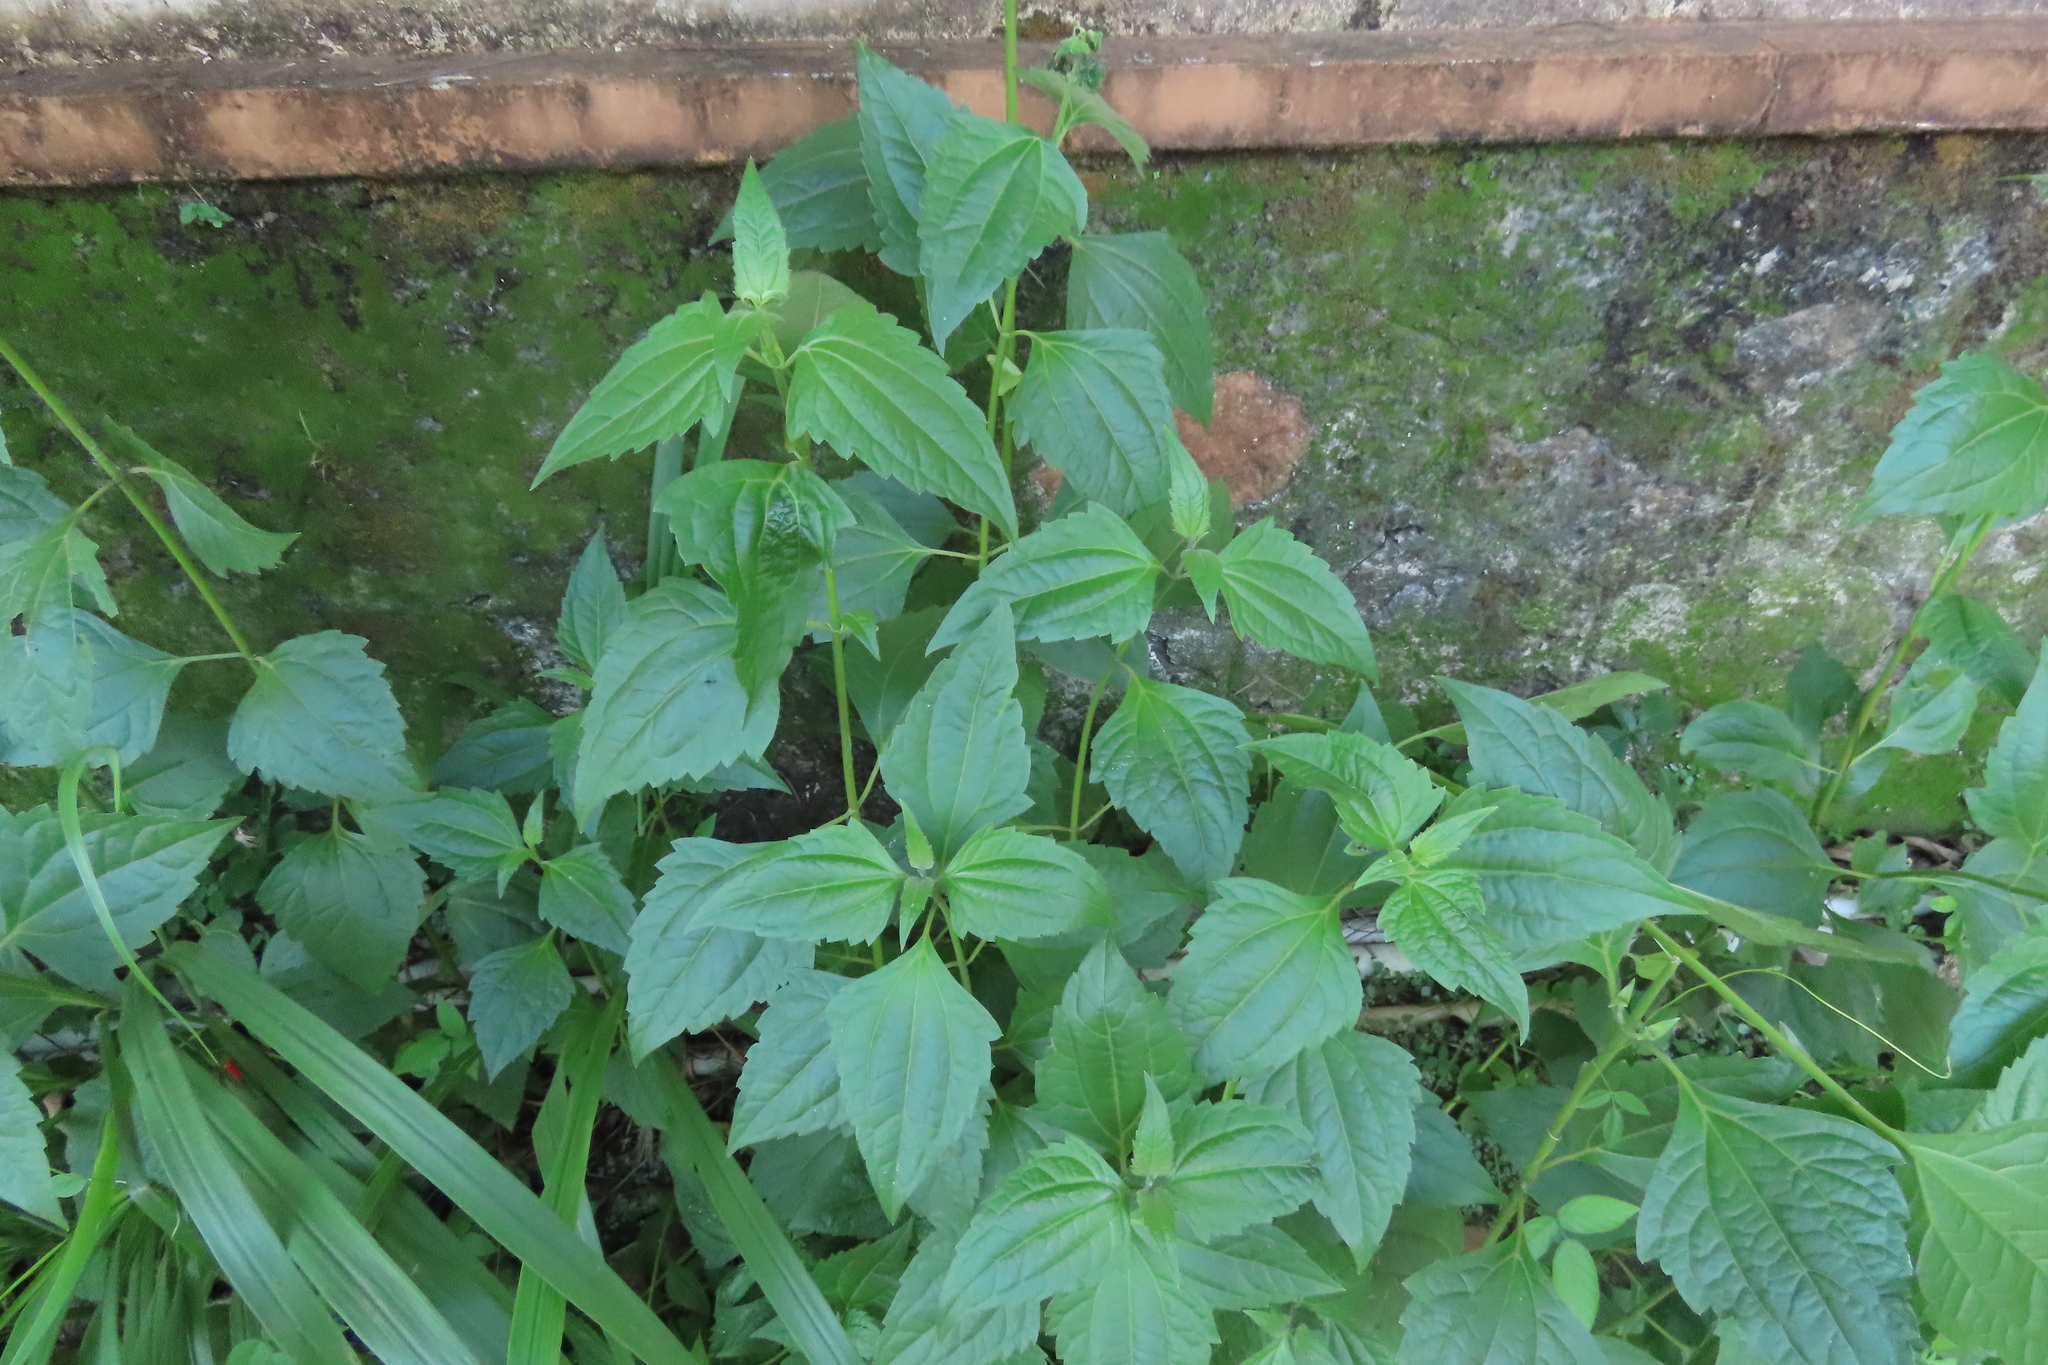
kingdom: Plantae
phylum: Tracheophyta
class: Magnoliopsida
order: Asterales
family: Asteraceae
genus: Chromolaena
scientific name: Chromolaena odorata
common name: Siamweed
